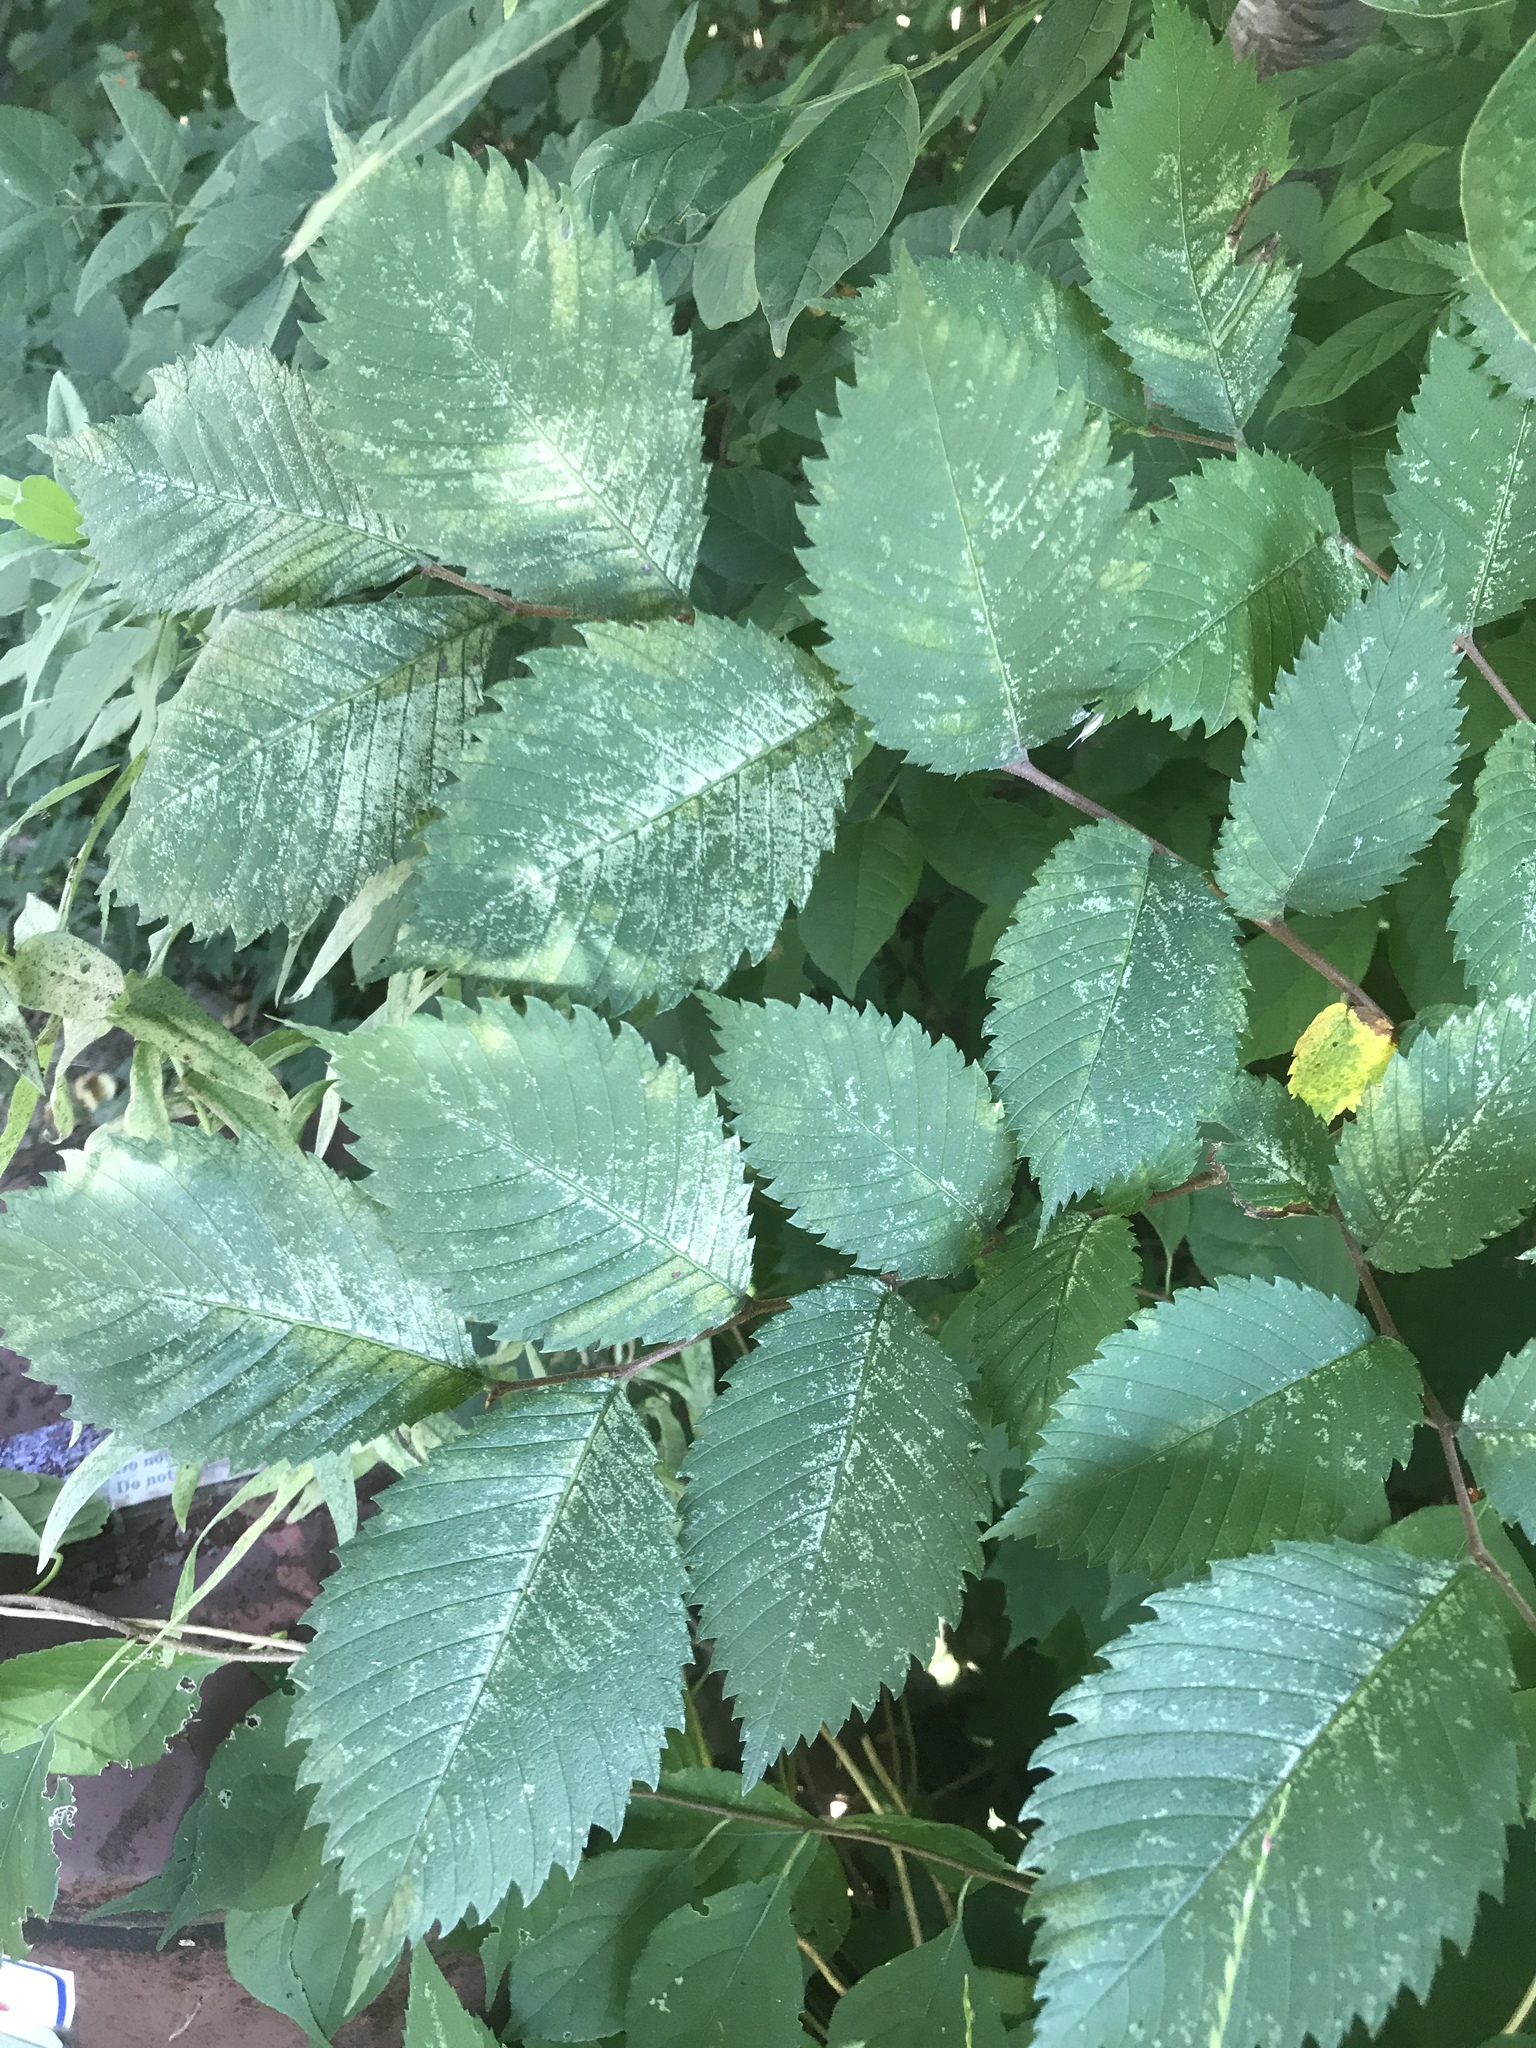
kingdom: Plantae
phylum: Tracheophyta
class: Magnoliopsida
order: Rosales
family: Ulmaceae
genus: Ulmus
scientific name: Ulmus americana
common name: American elm
